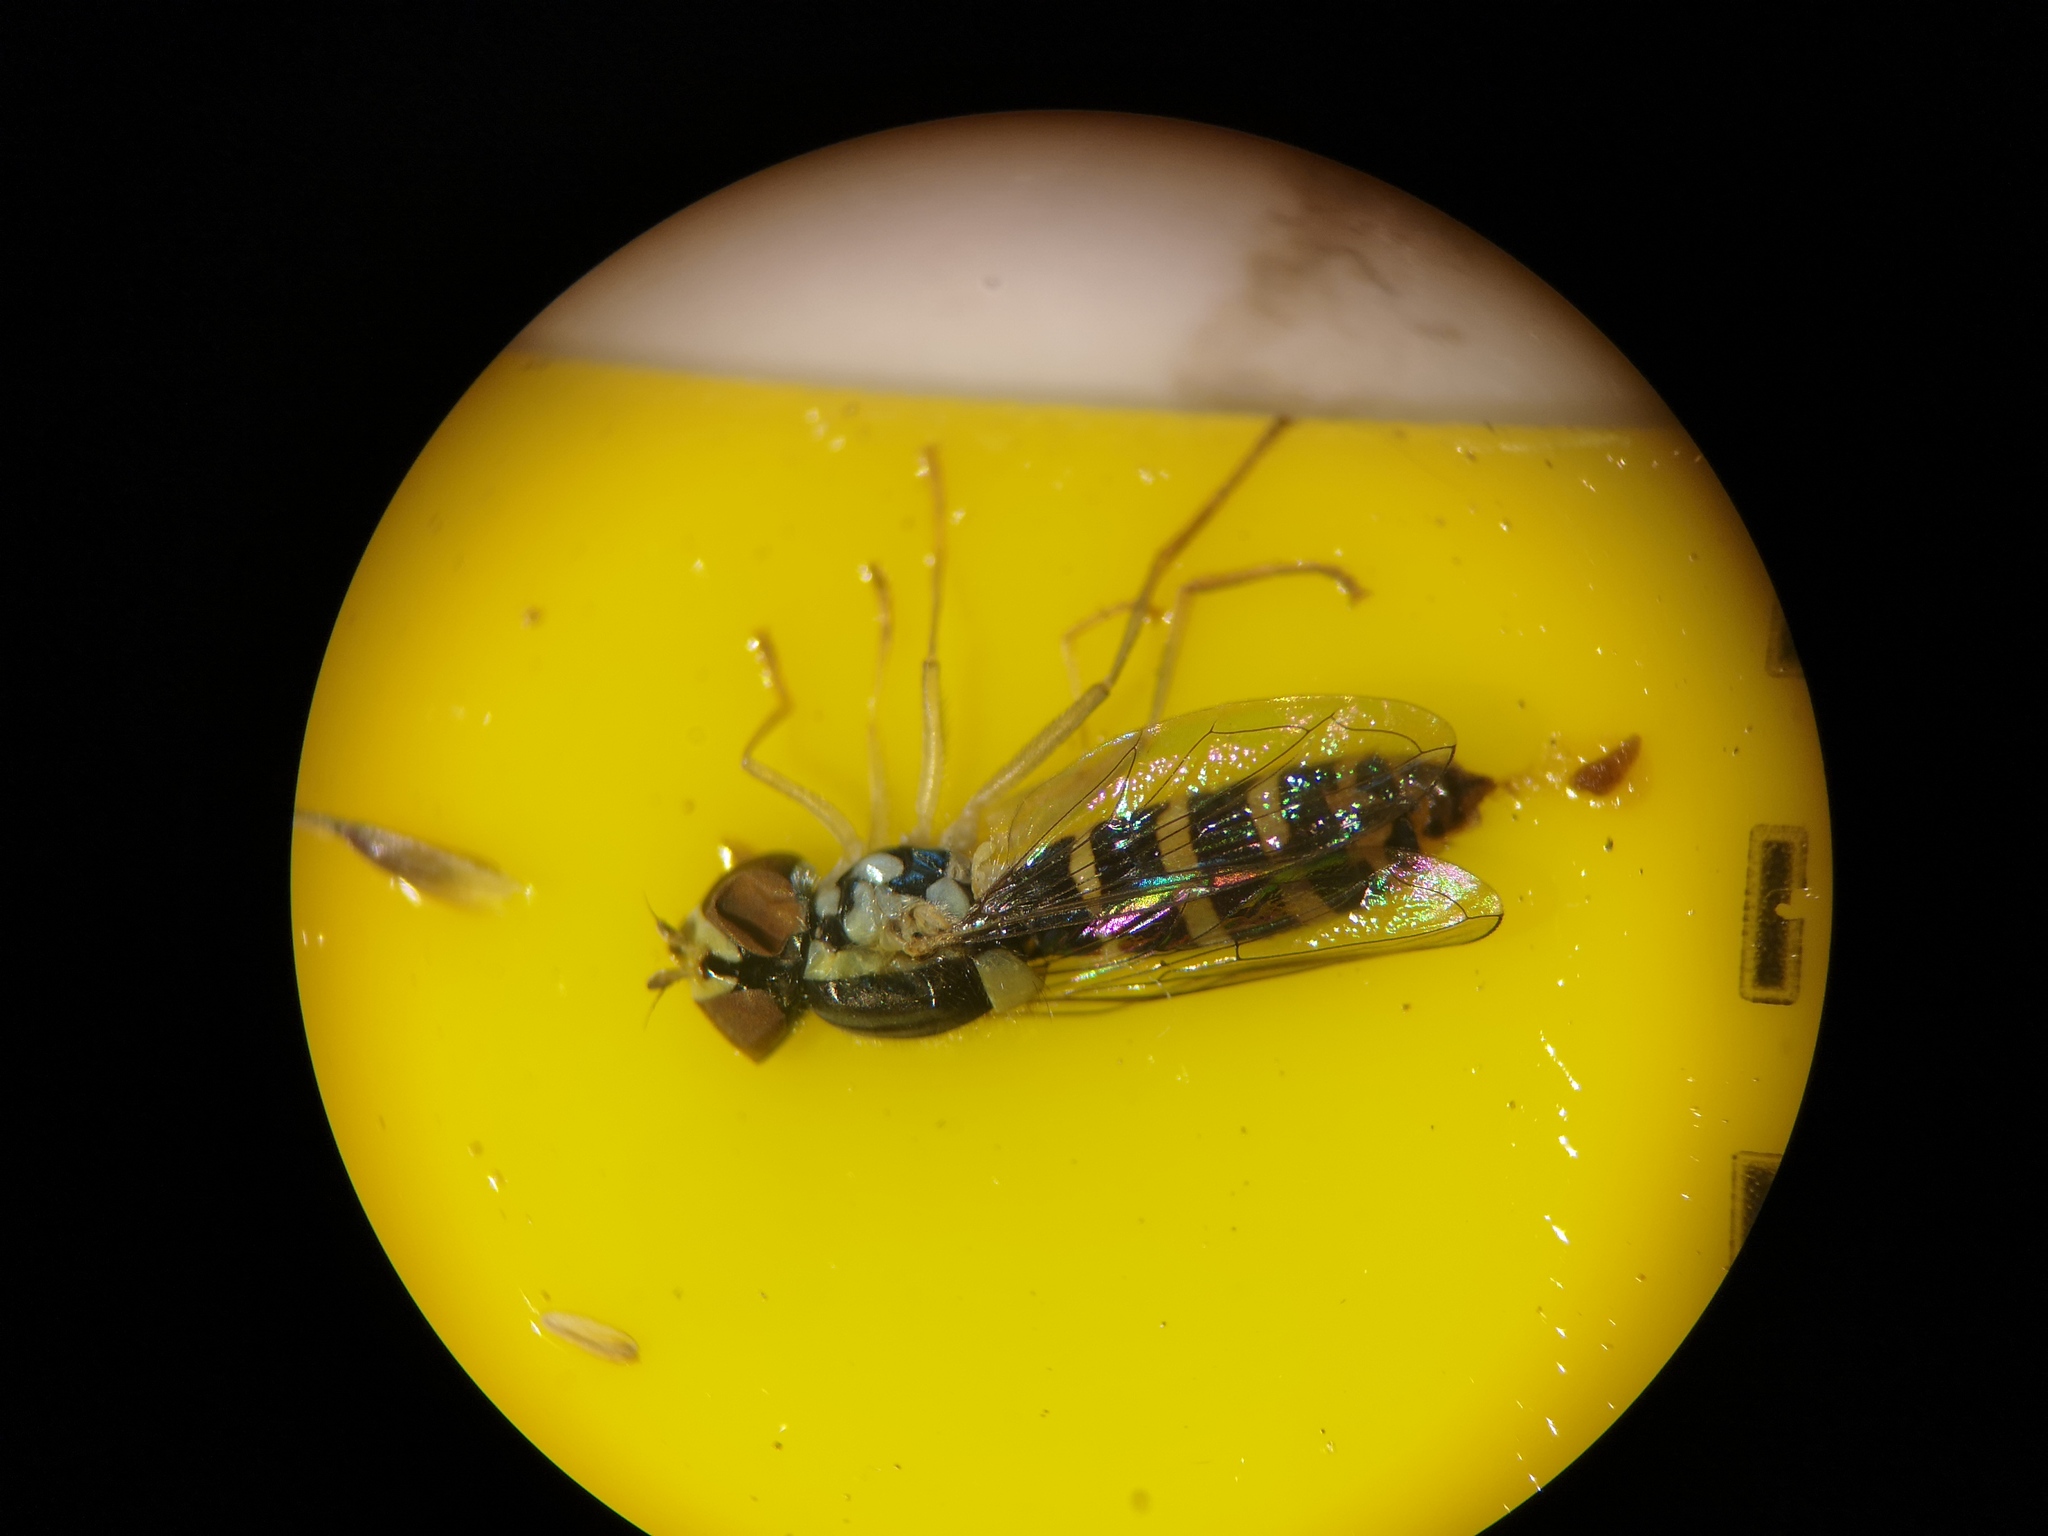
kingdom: Animalia
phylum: Arthropoda
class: Insecta
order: Diptera
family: Syrphidae
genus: Sphaerophoria
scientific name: Sphaerophoria
